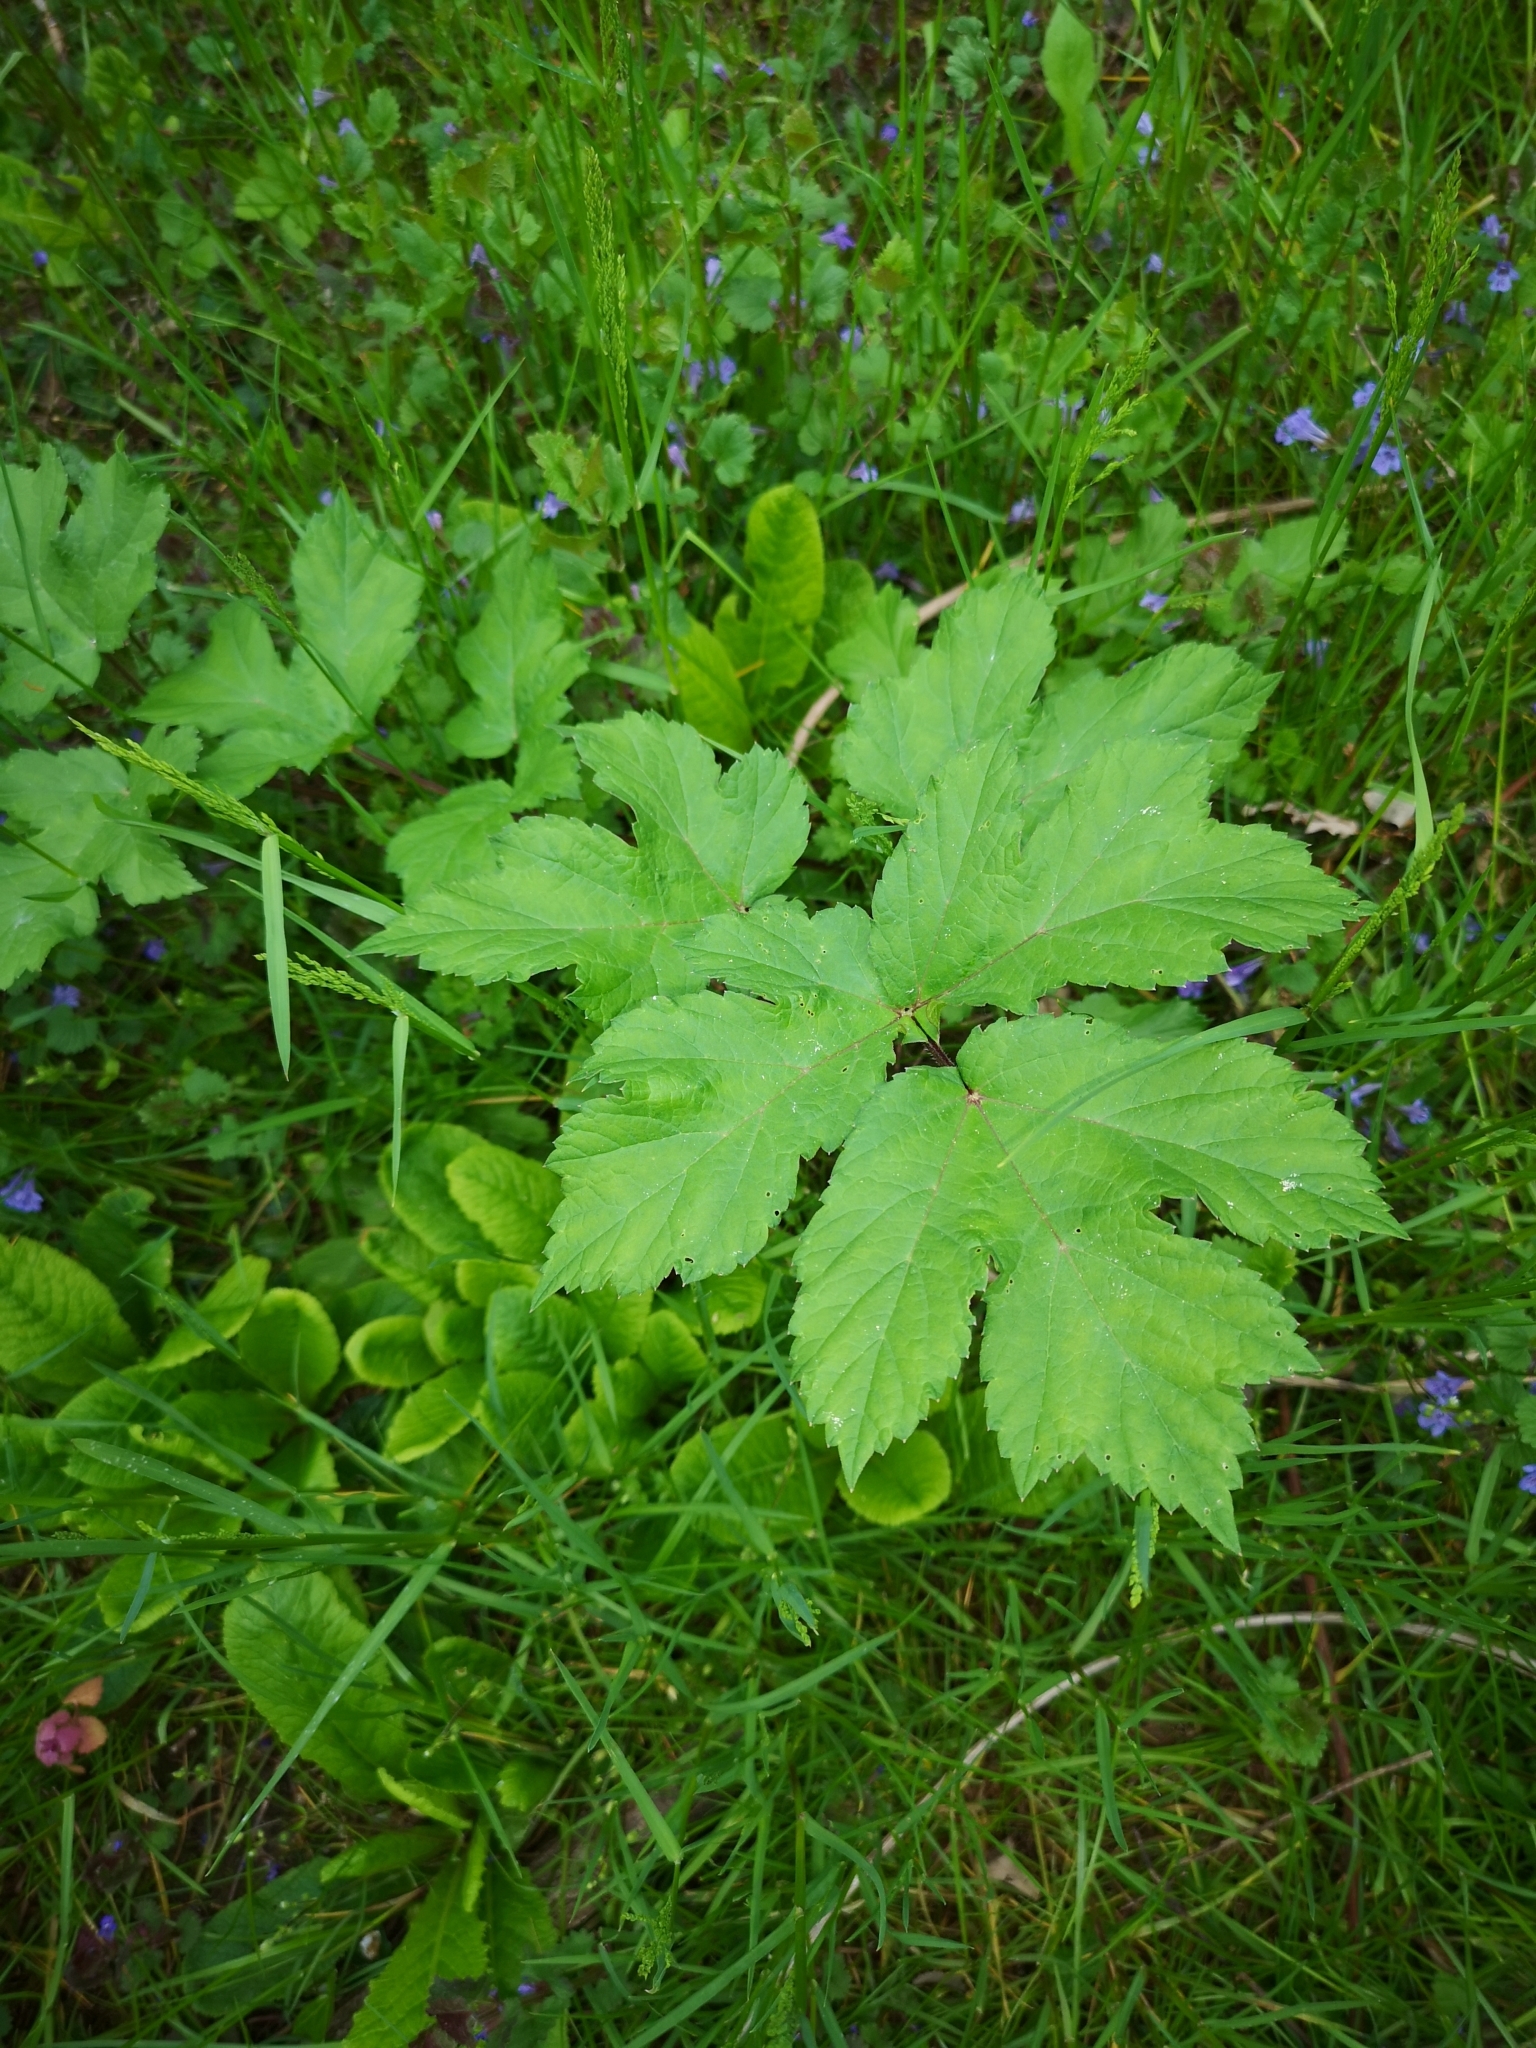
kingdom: Plantae
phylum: Tracheophyta
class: Magnoliopsida
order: Apiales
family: Apiaceae
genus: Heracleum
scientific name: Heracleum sphondylium
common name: Hogweed
